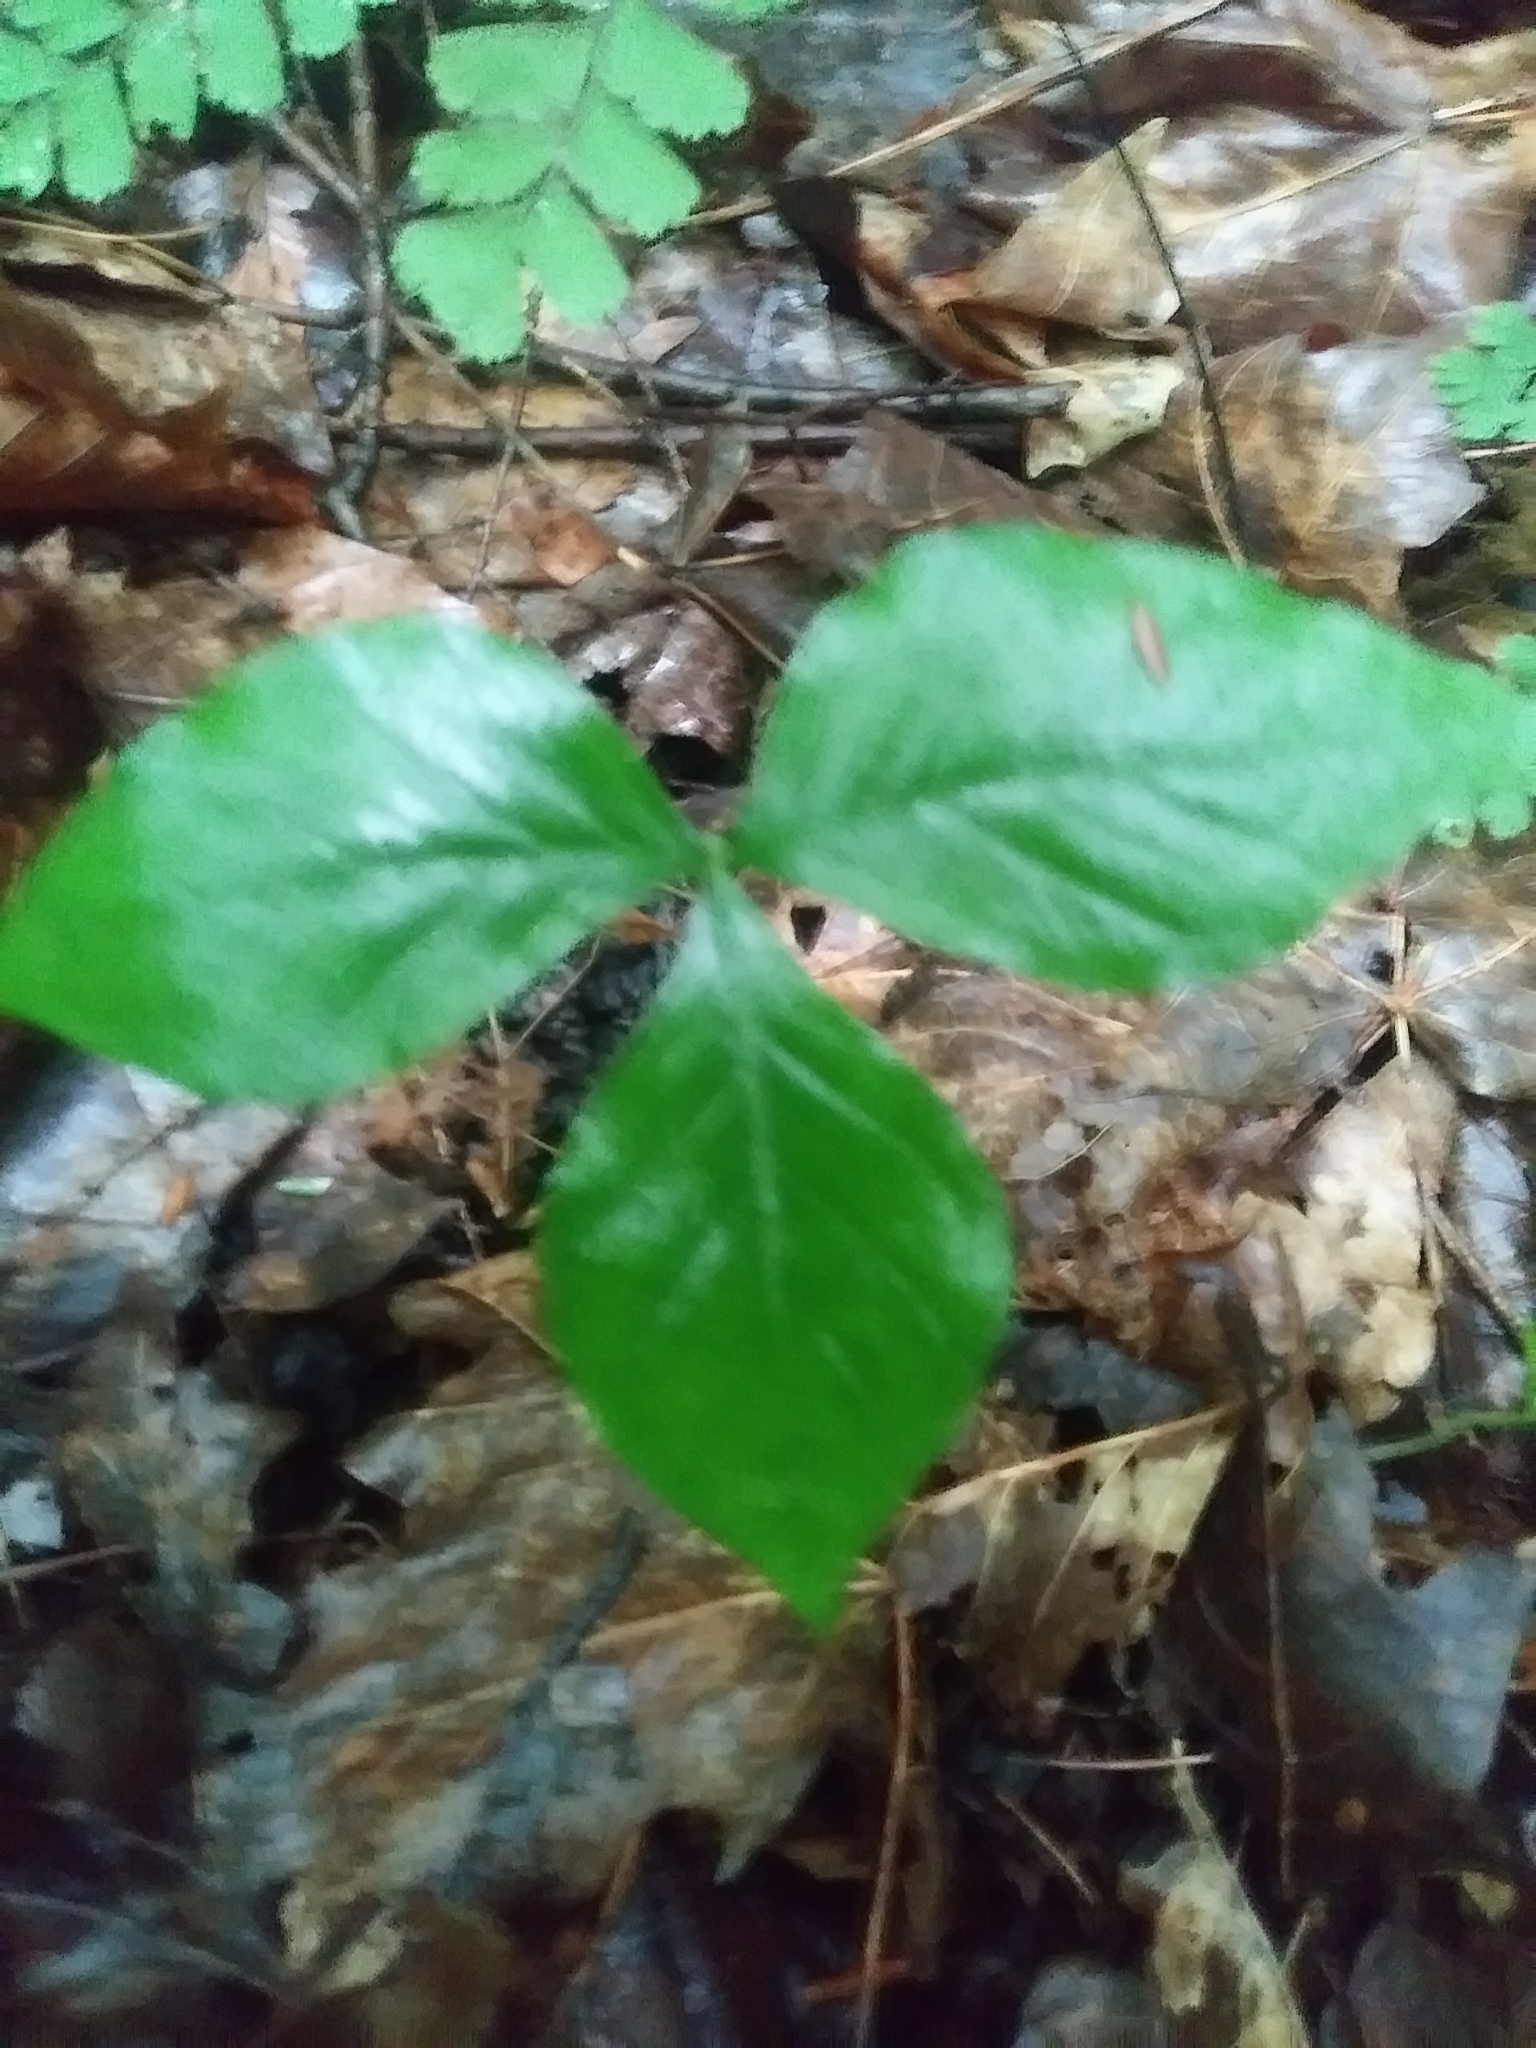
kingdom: Plantae
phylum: Tracheophyta
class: Liliopsida
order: Alismatales
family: Araceae
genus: Arisaema
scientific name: Arisaema triphyllum
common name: Jack-in-the-pulpit
